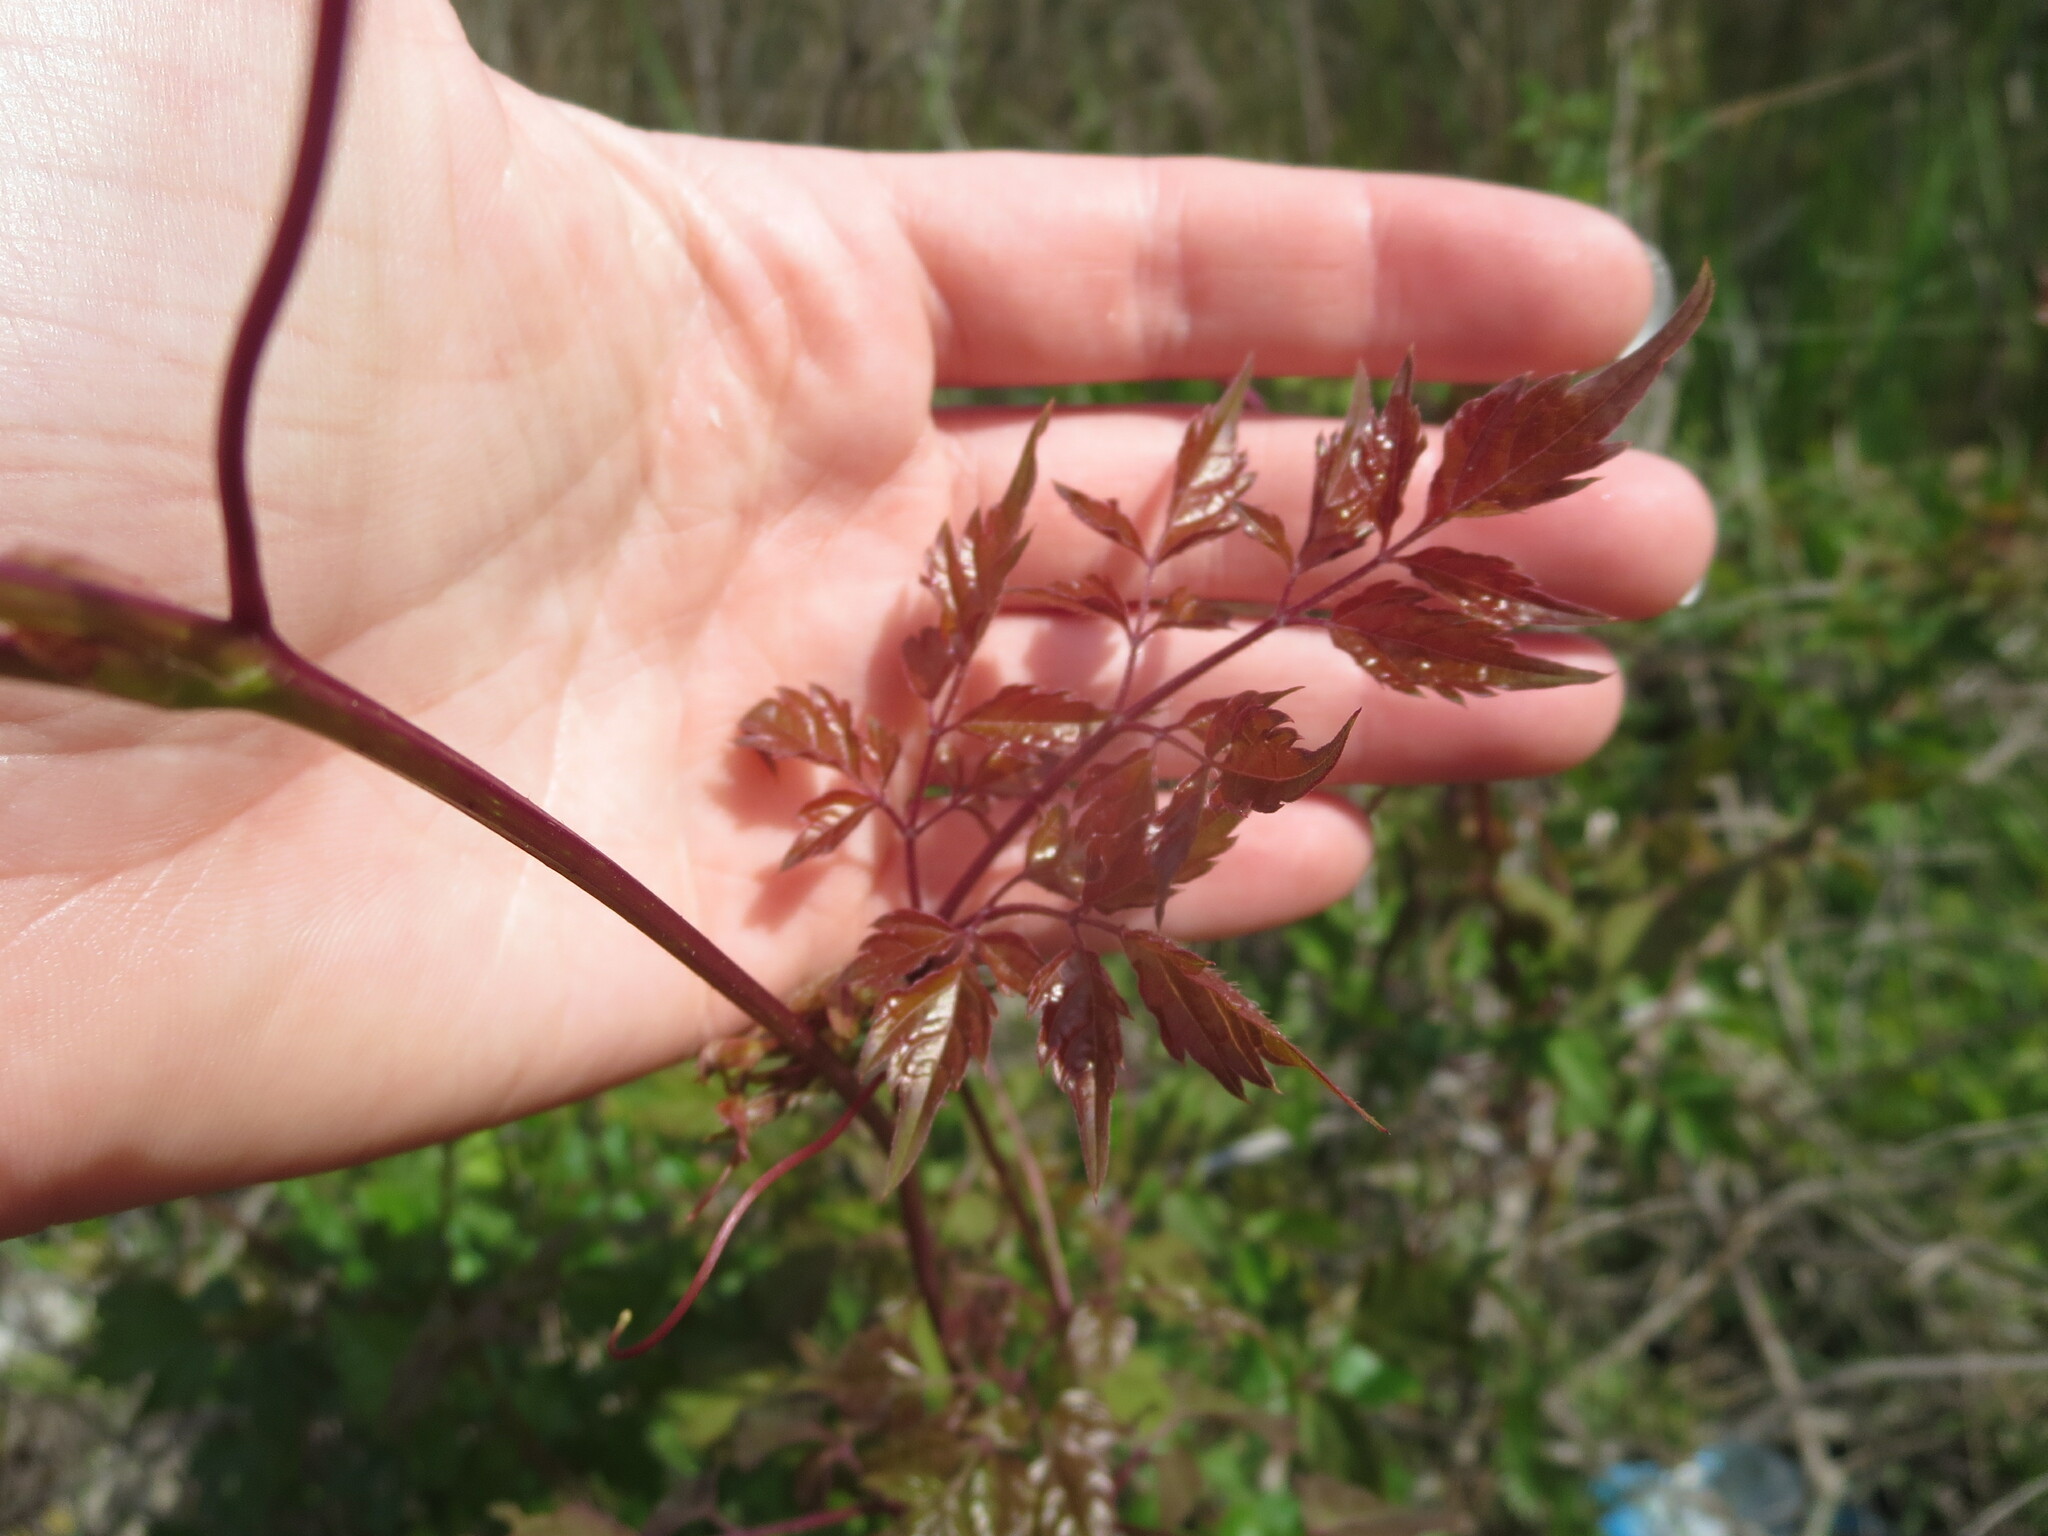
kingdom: Plantae
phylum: Tracheophyta
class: Magnoliopsida
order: Vitales
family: Vitaceae
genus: Nekemias
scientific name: Nekemias arborea
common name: Peppervine
